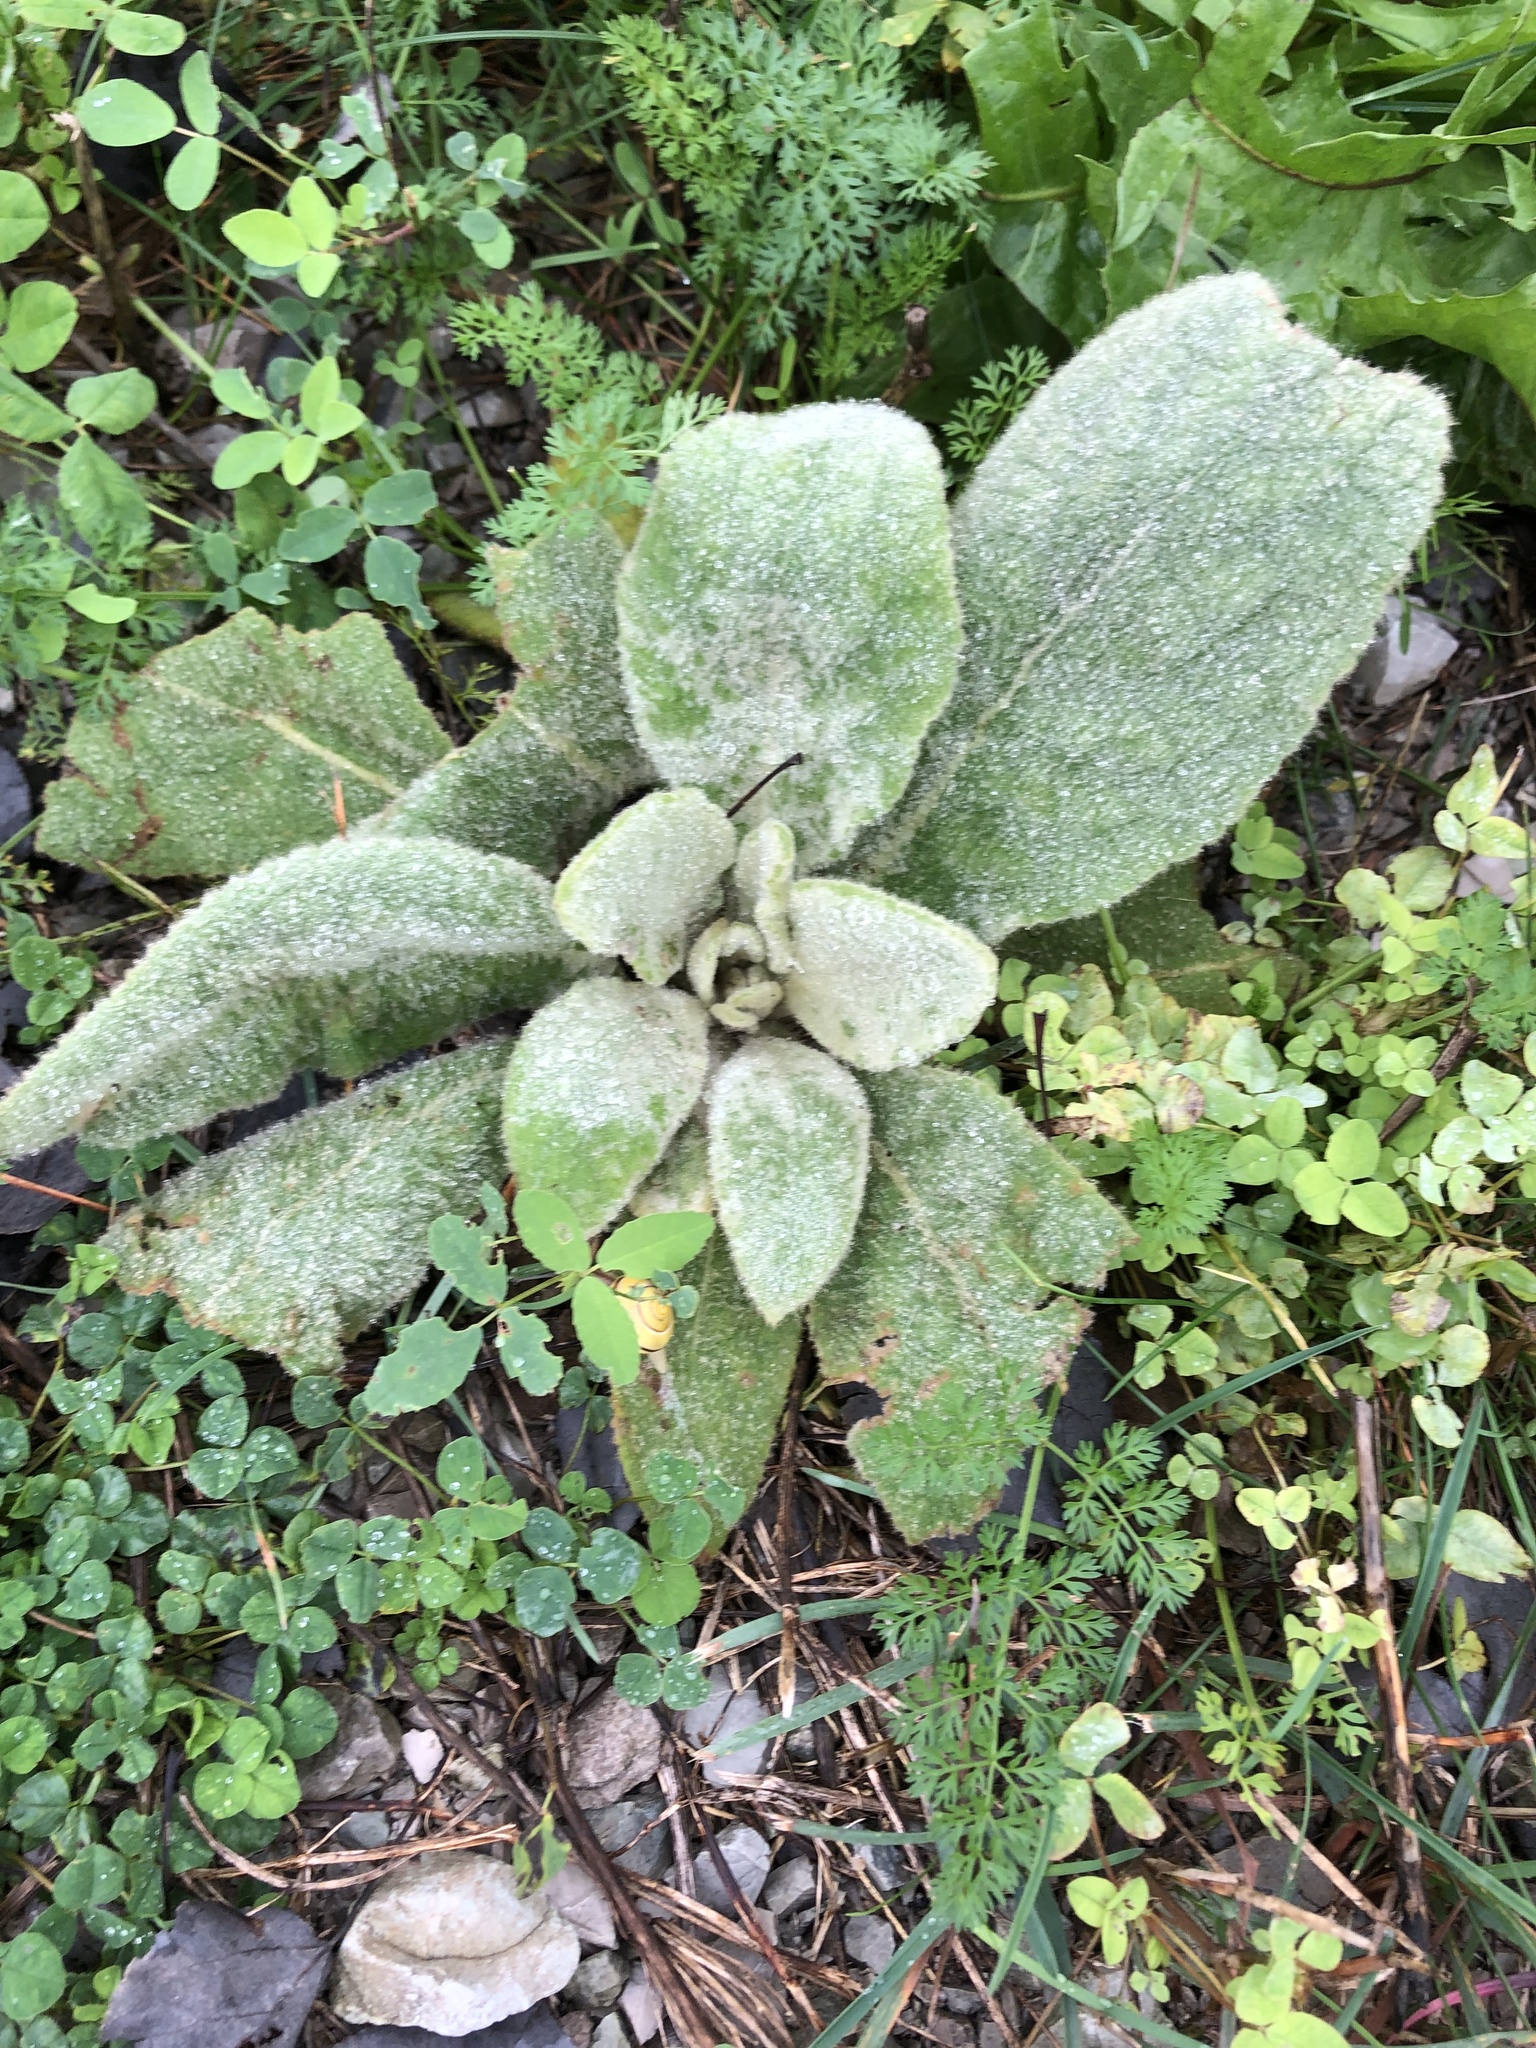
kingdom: Plantae
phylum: Tracheophyta
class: Magnoliopsida
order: Lamiales
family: Scrophulariaceae
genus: Verbascum
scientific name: Verbascum thapsus
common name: Common mullein
